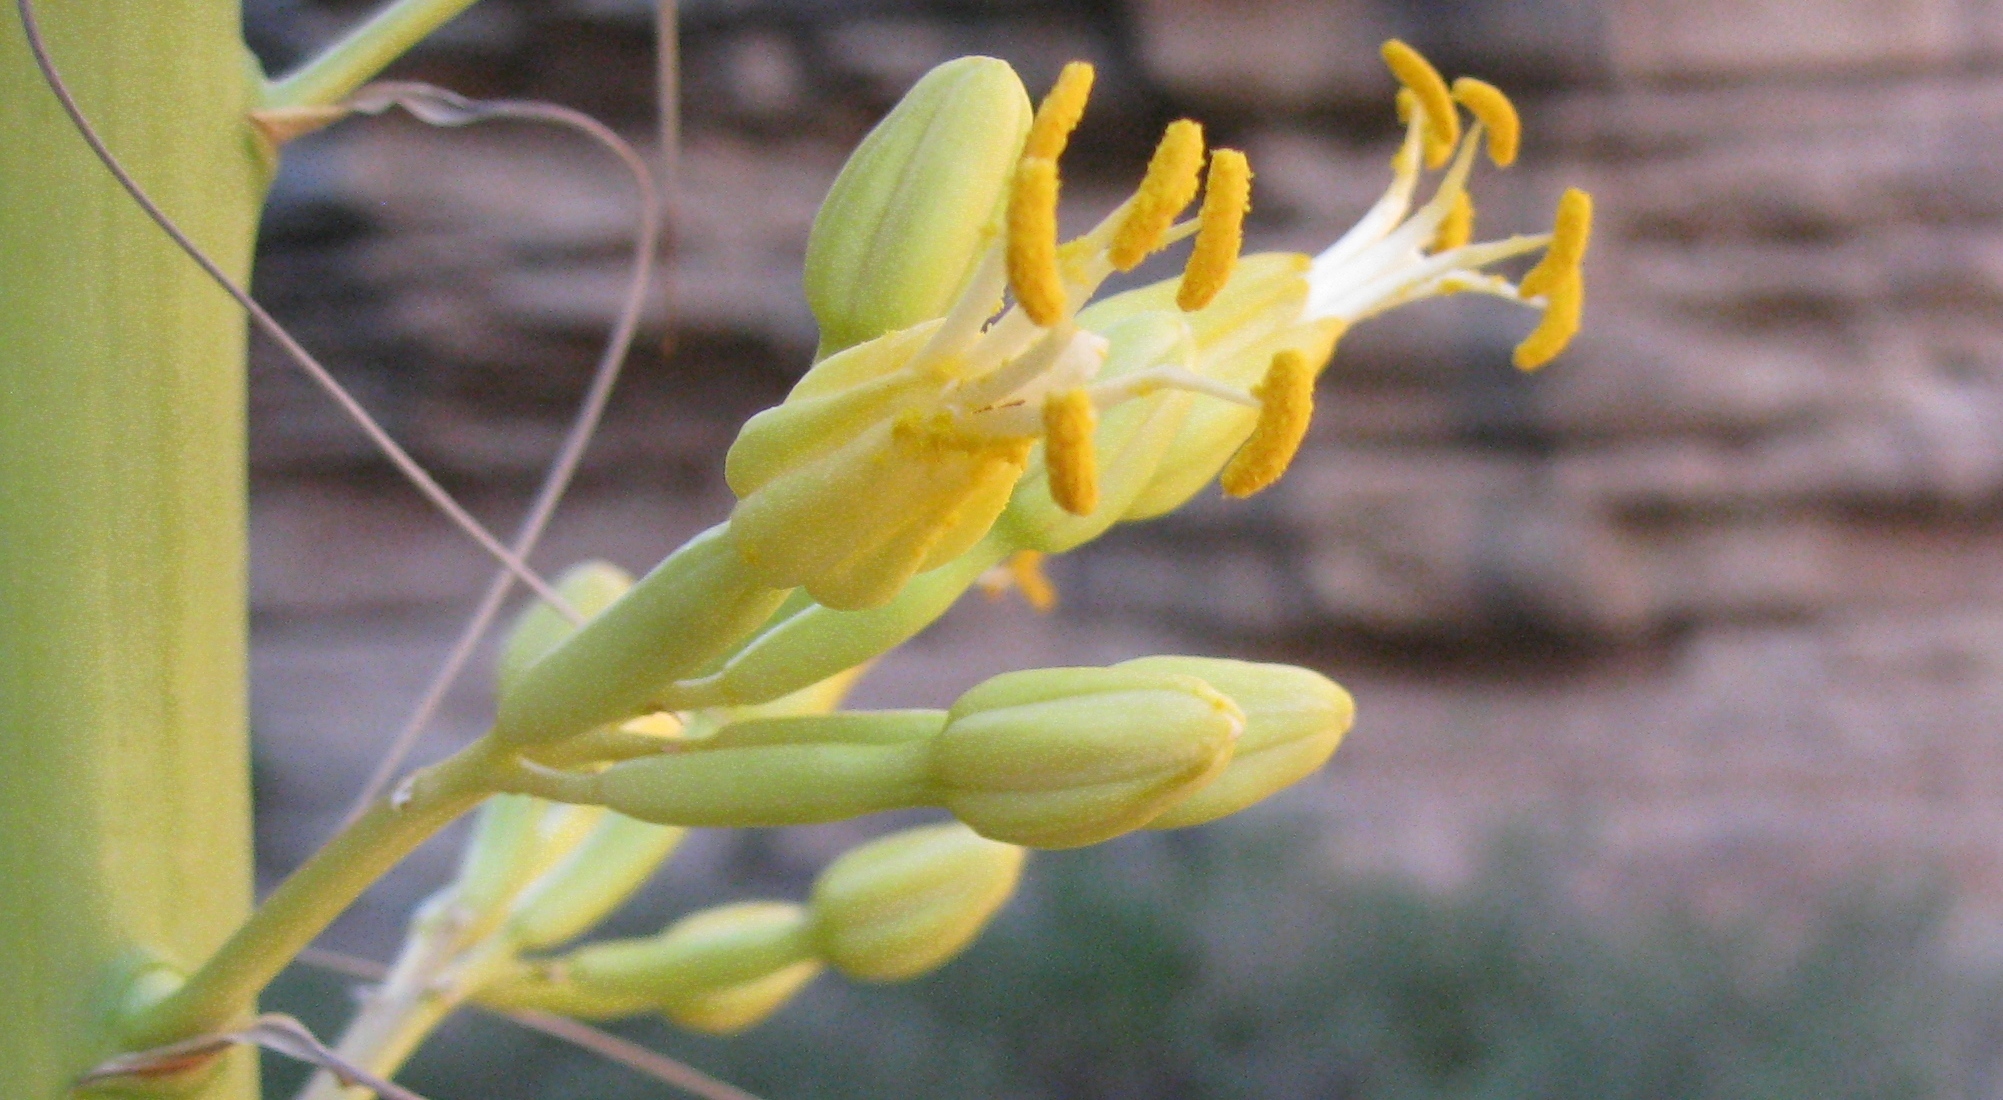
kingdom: Plantae
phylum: Tracheophyta
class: Liliopsida
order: Asparagales
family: Asparagaceae
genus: Agave
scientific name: Agave utahensis
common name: Utah agave
